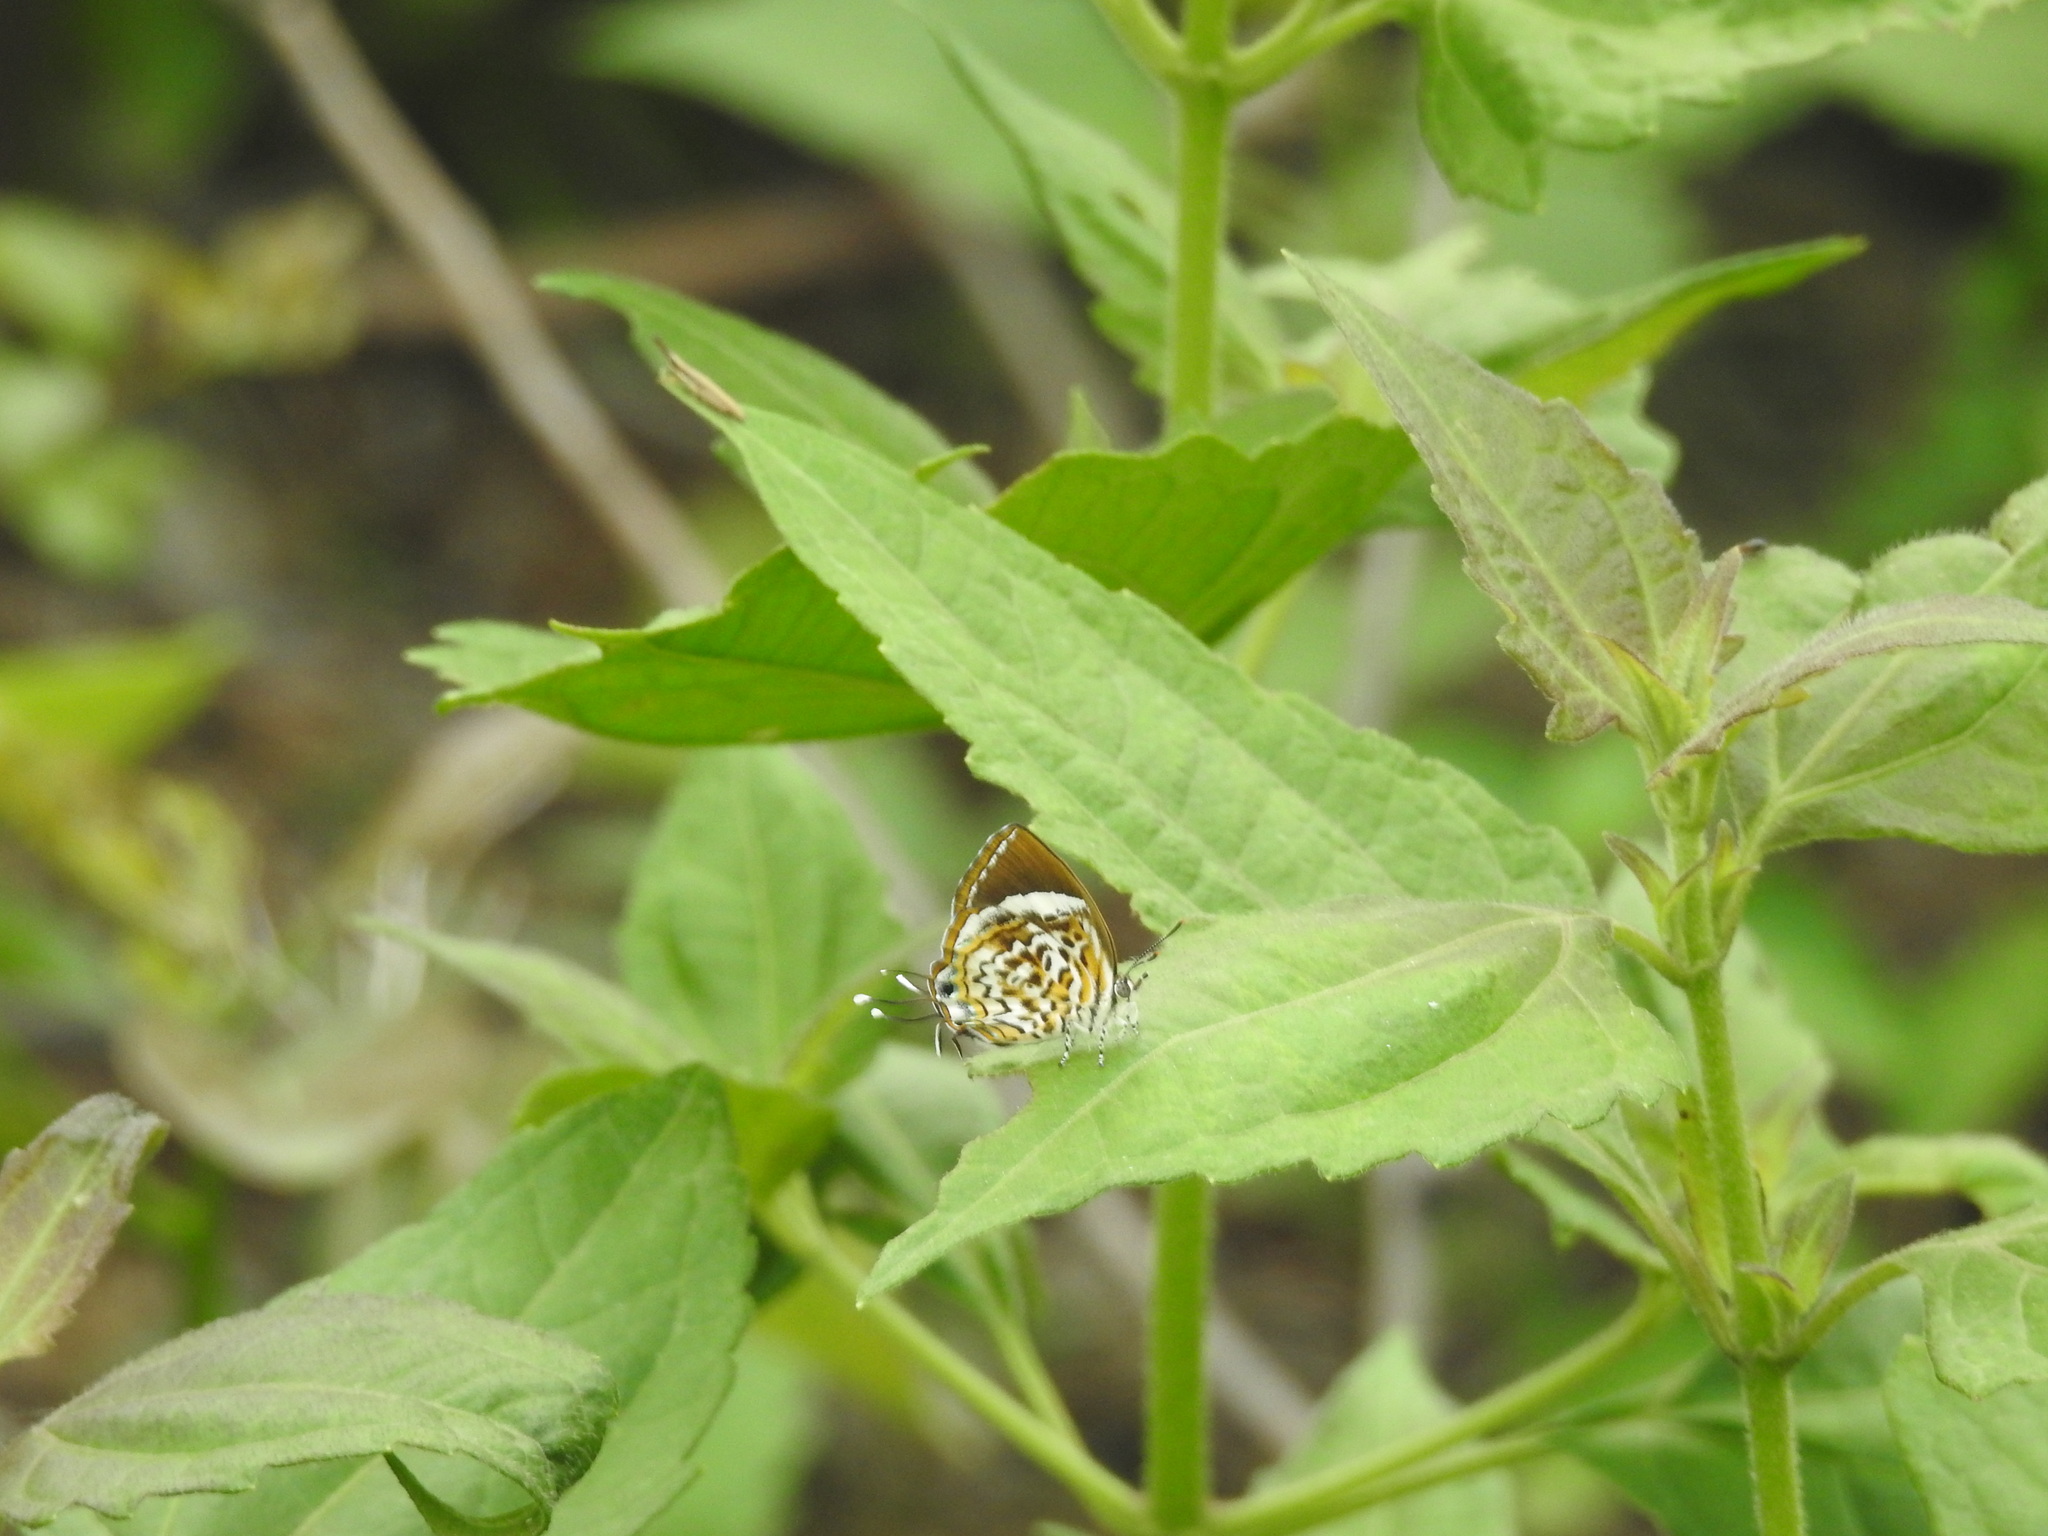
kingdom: Animalia
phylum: Arthropoda
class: Insecta
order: Lepidoptera
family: Lycaenidae
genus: Rathinda
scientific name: Rathinda amor
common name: Monkey puzzle
